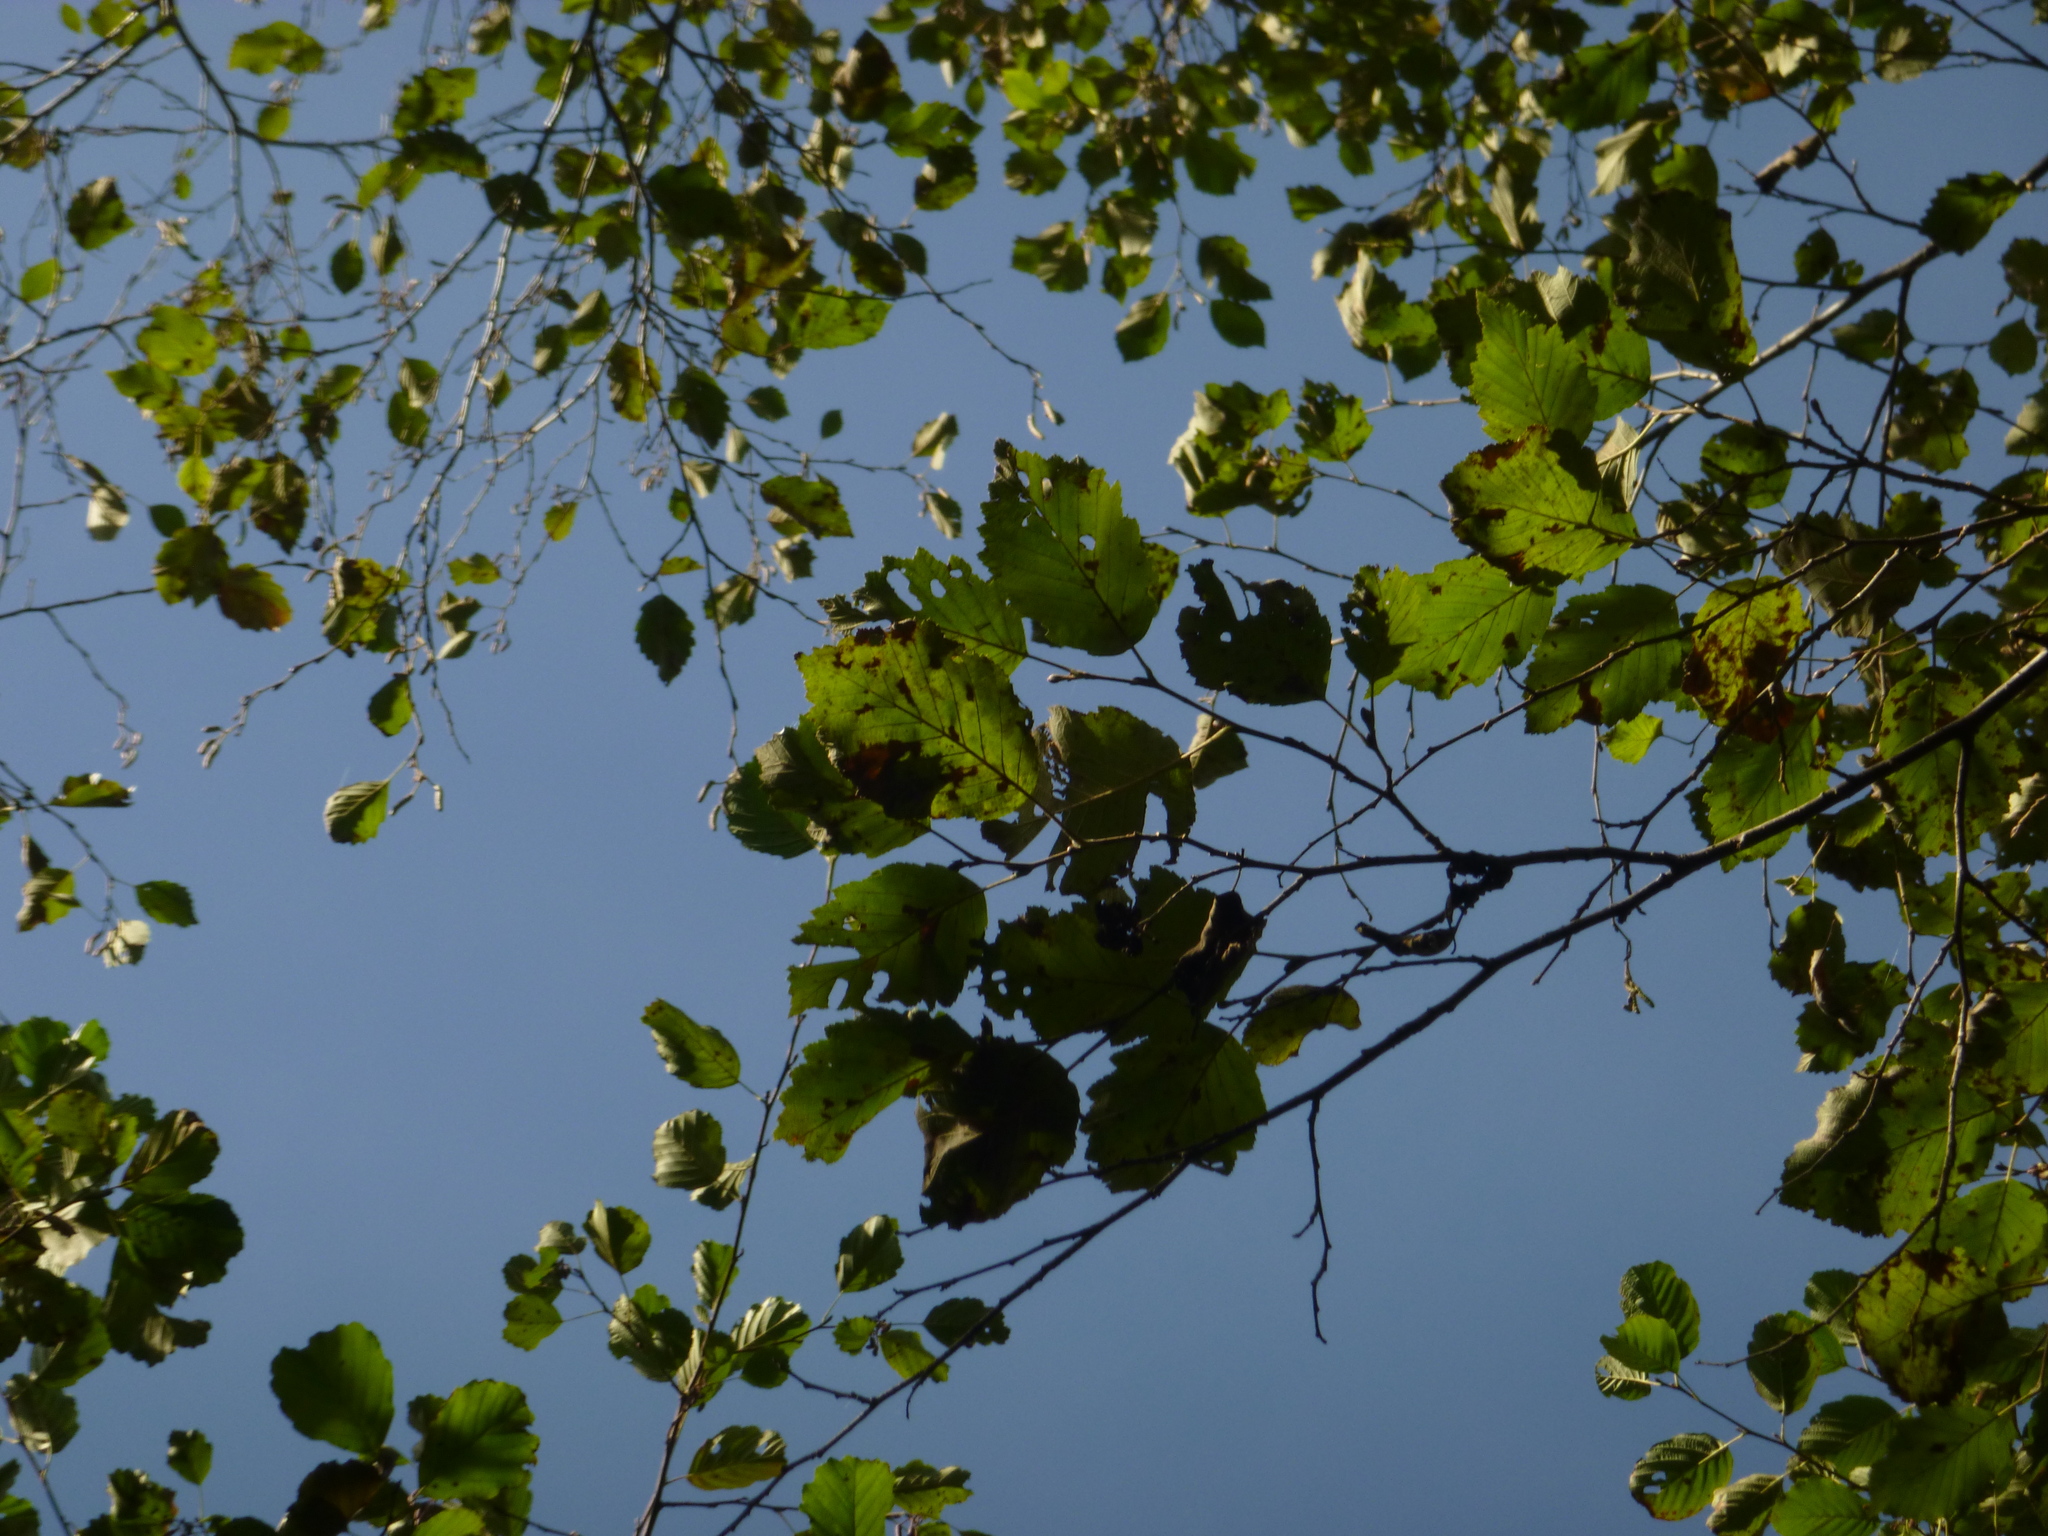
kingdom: Plantae
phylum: Tracheophyta
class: Magnoliopsida
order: Fagales
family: Betulaceae
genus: Alnus
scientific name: Alnus incana
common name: Grey alder
